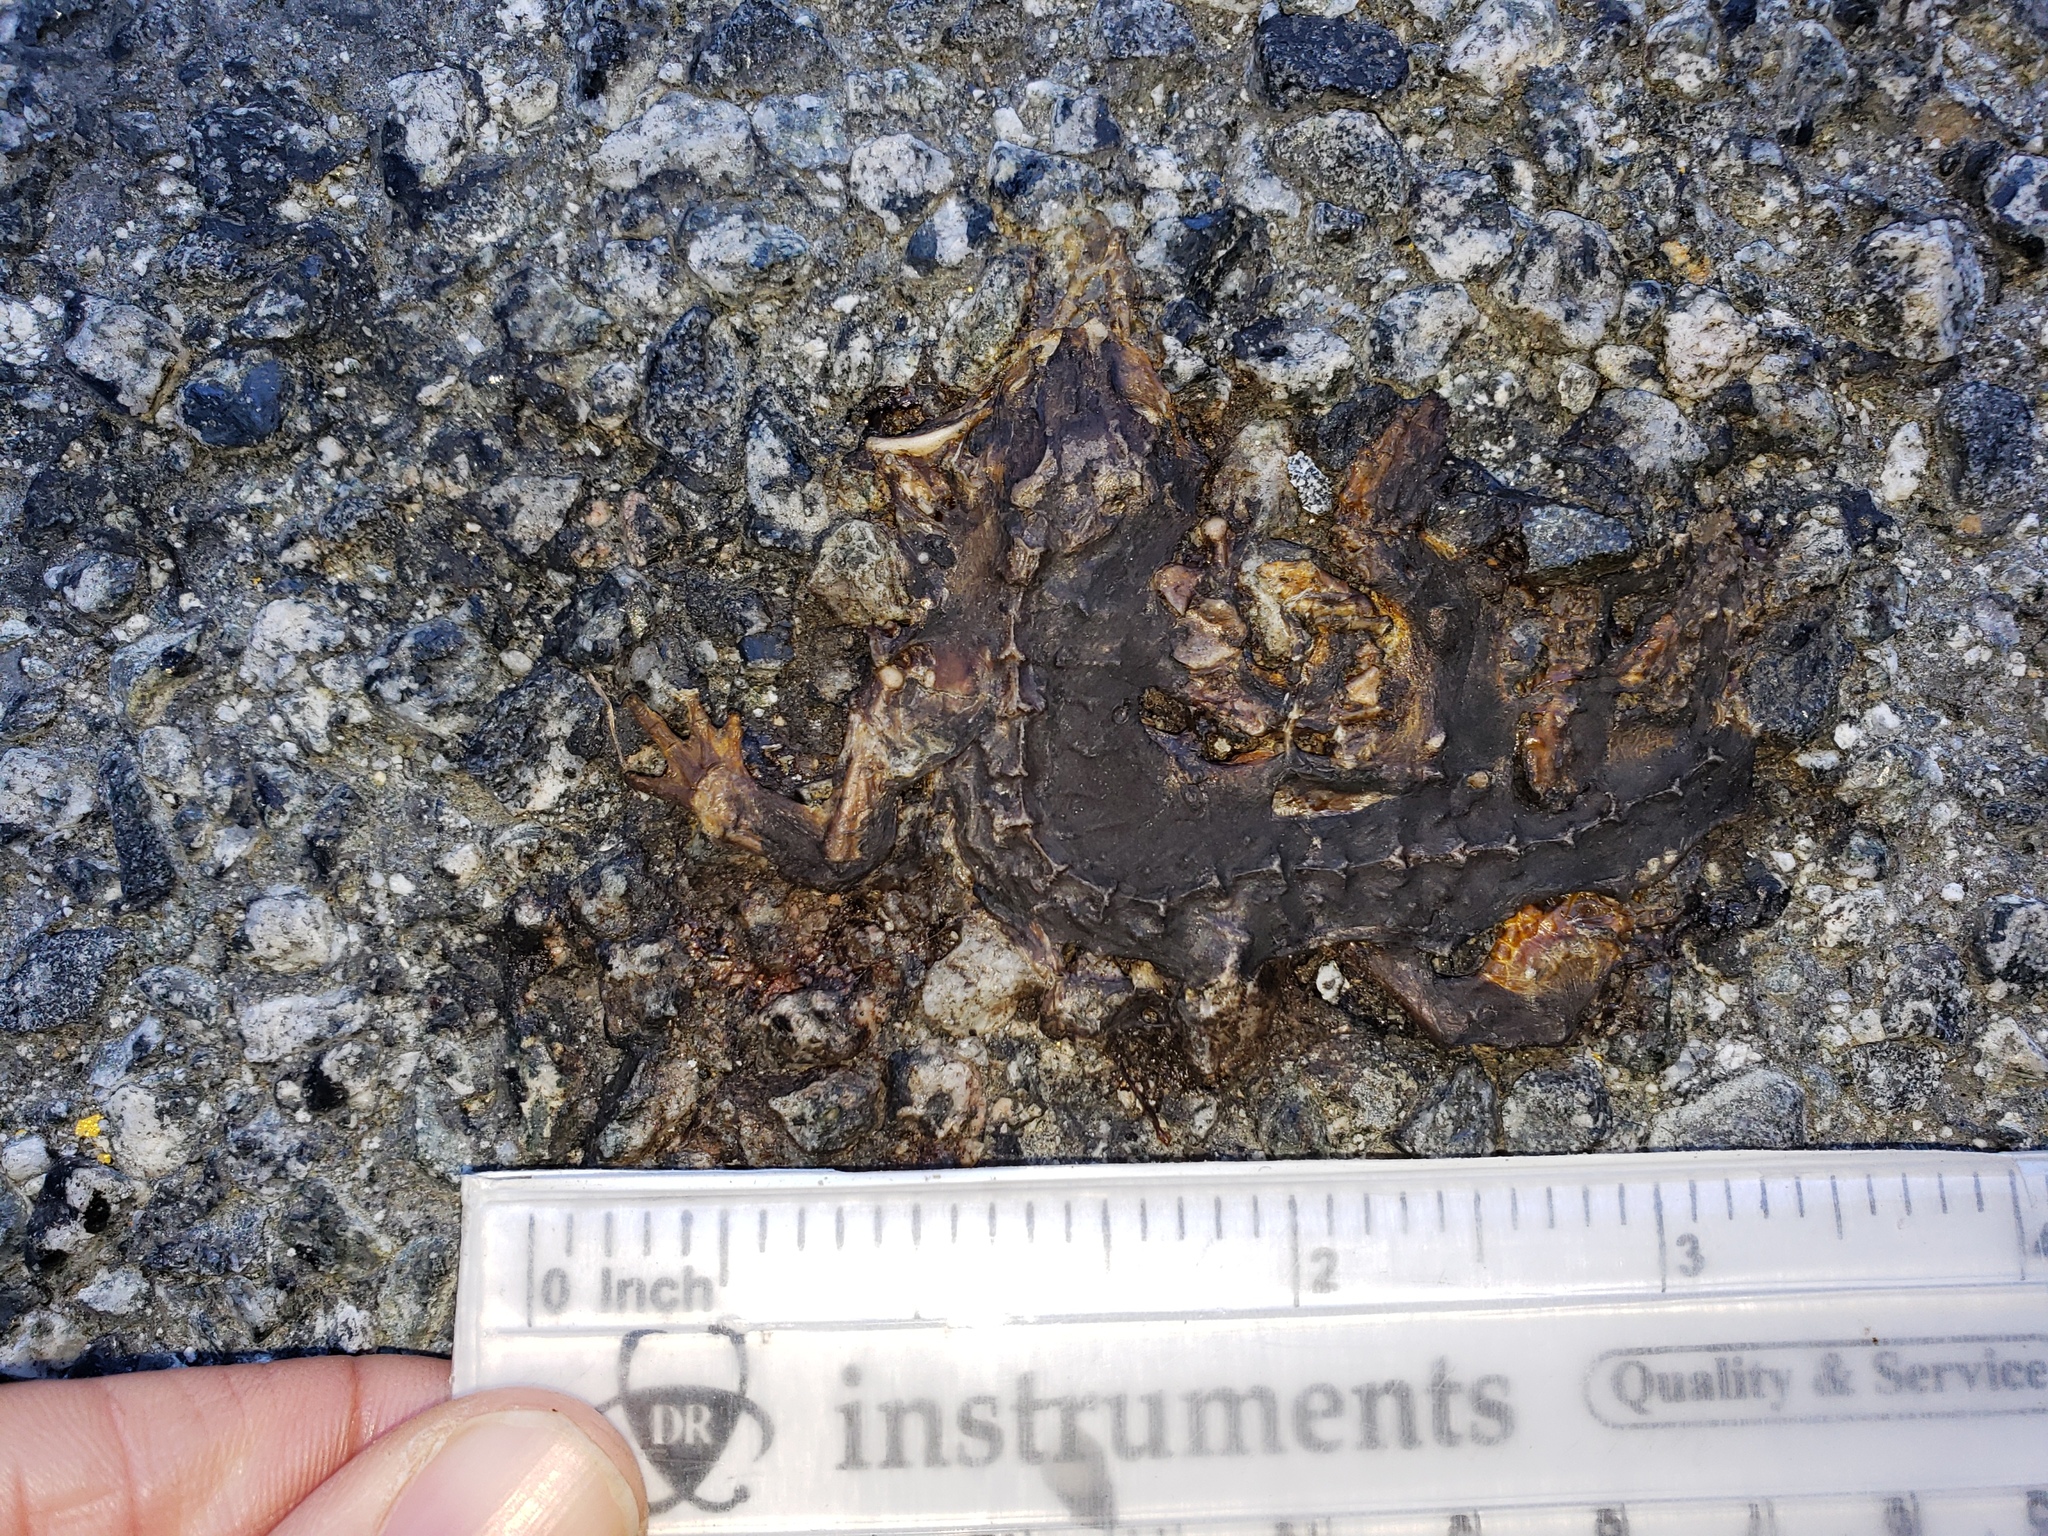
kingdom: Animalia
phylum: Chordata
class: Amphibia
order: Caudata
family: Salamandridae
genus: Taricha
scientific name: Taricha
